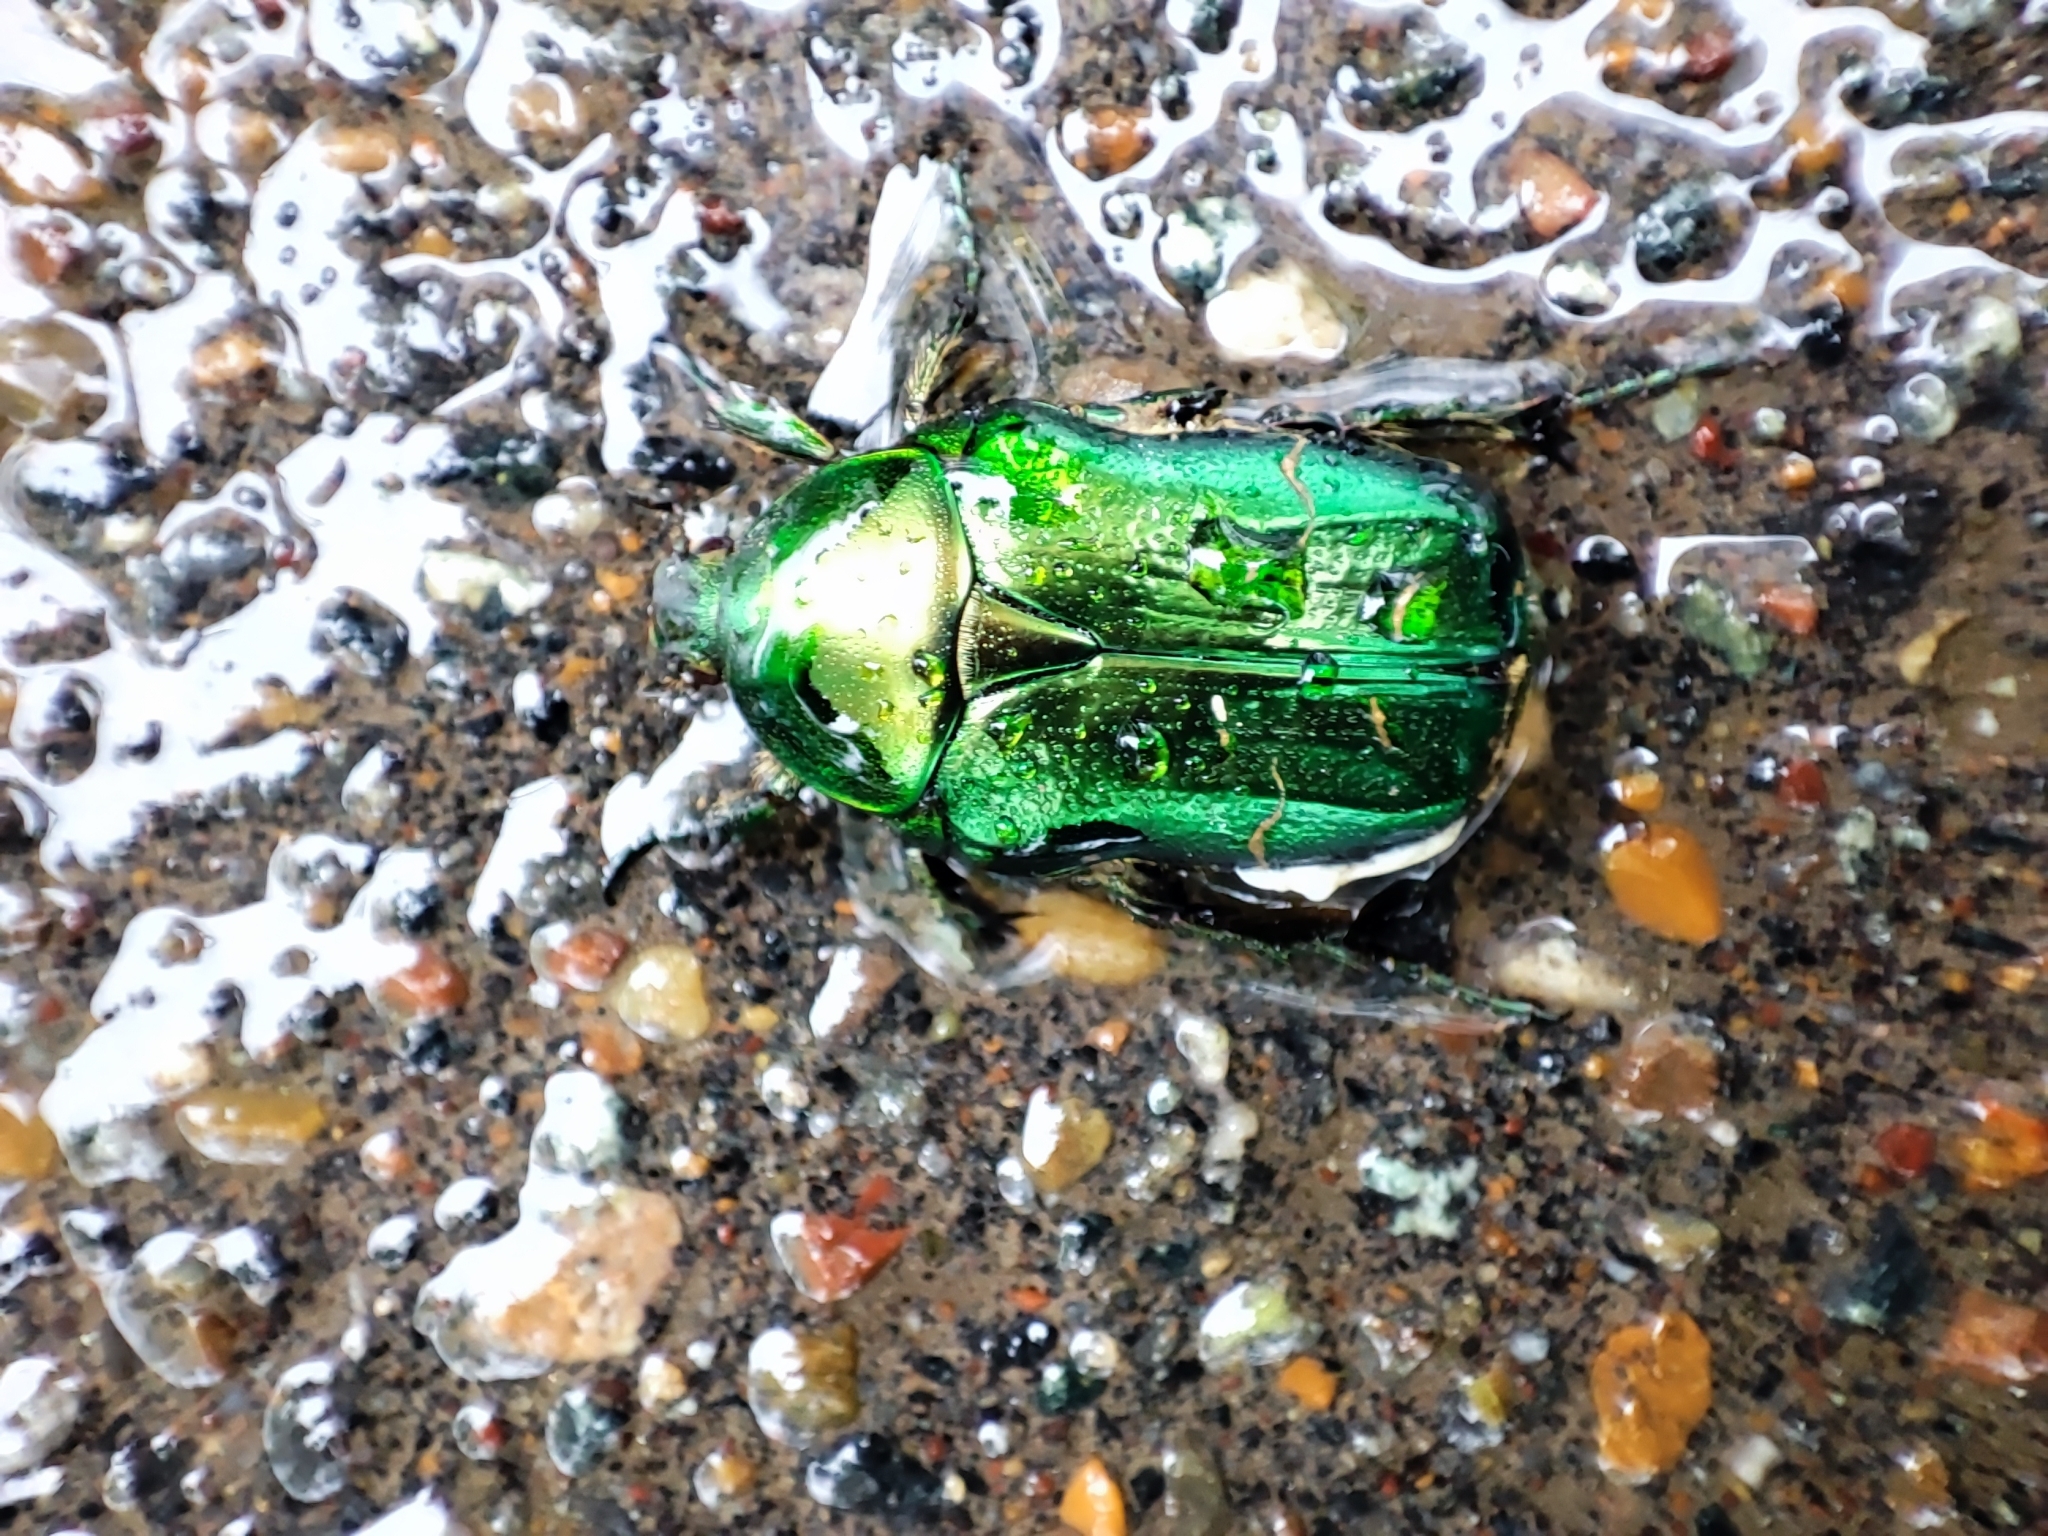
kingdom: Animalia
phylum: Arthropoda
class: Insecta
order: Coleoptera
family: Scarabaeidae
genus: Cetonia
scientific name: Cetonia aurata
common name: Rose chafer
